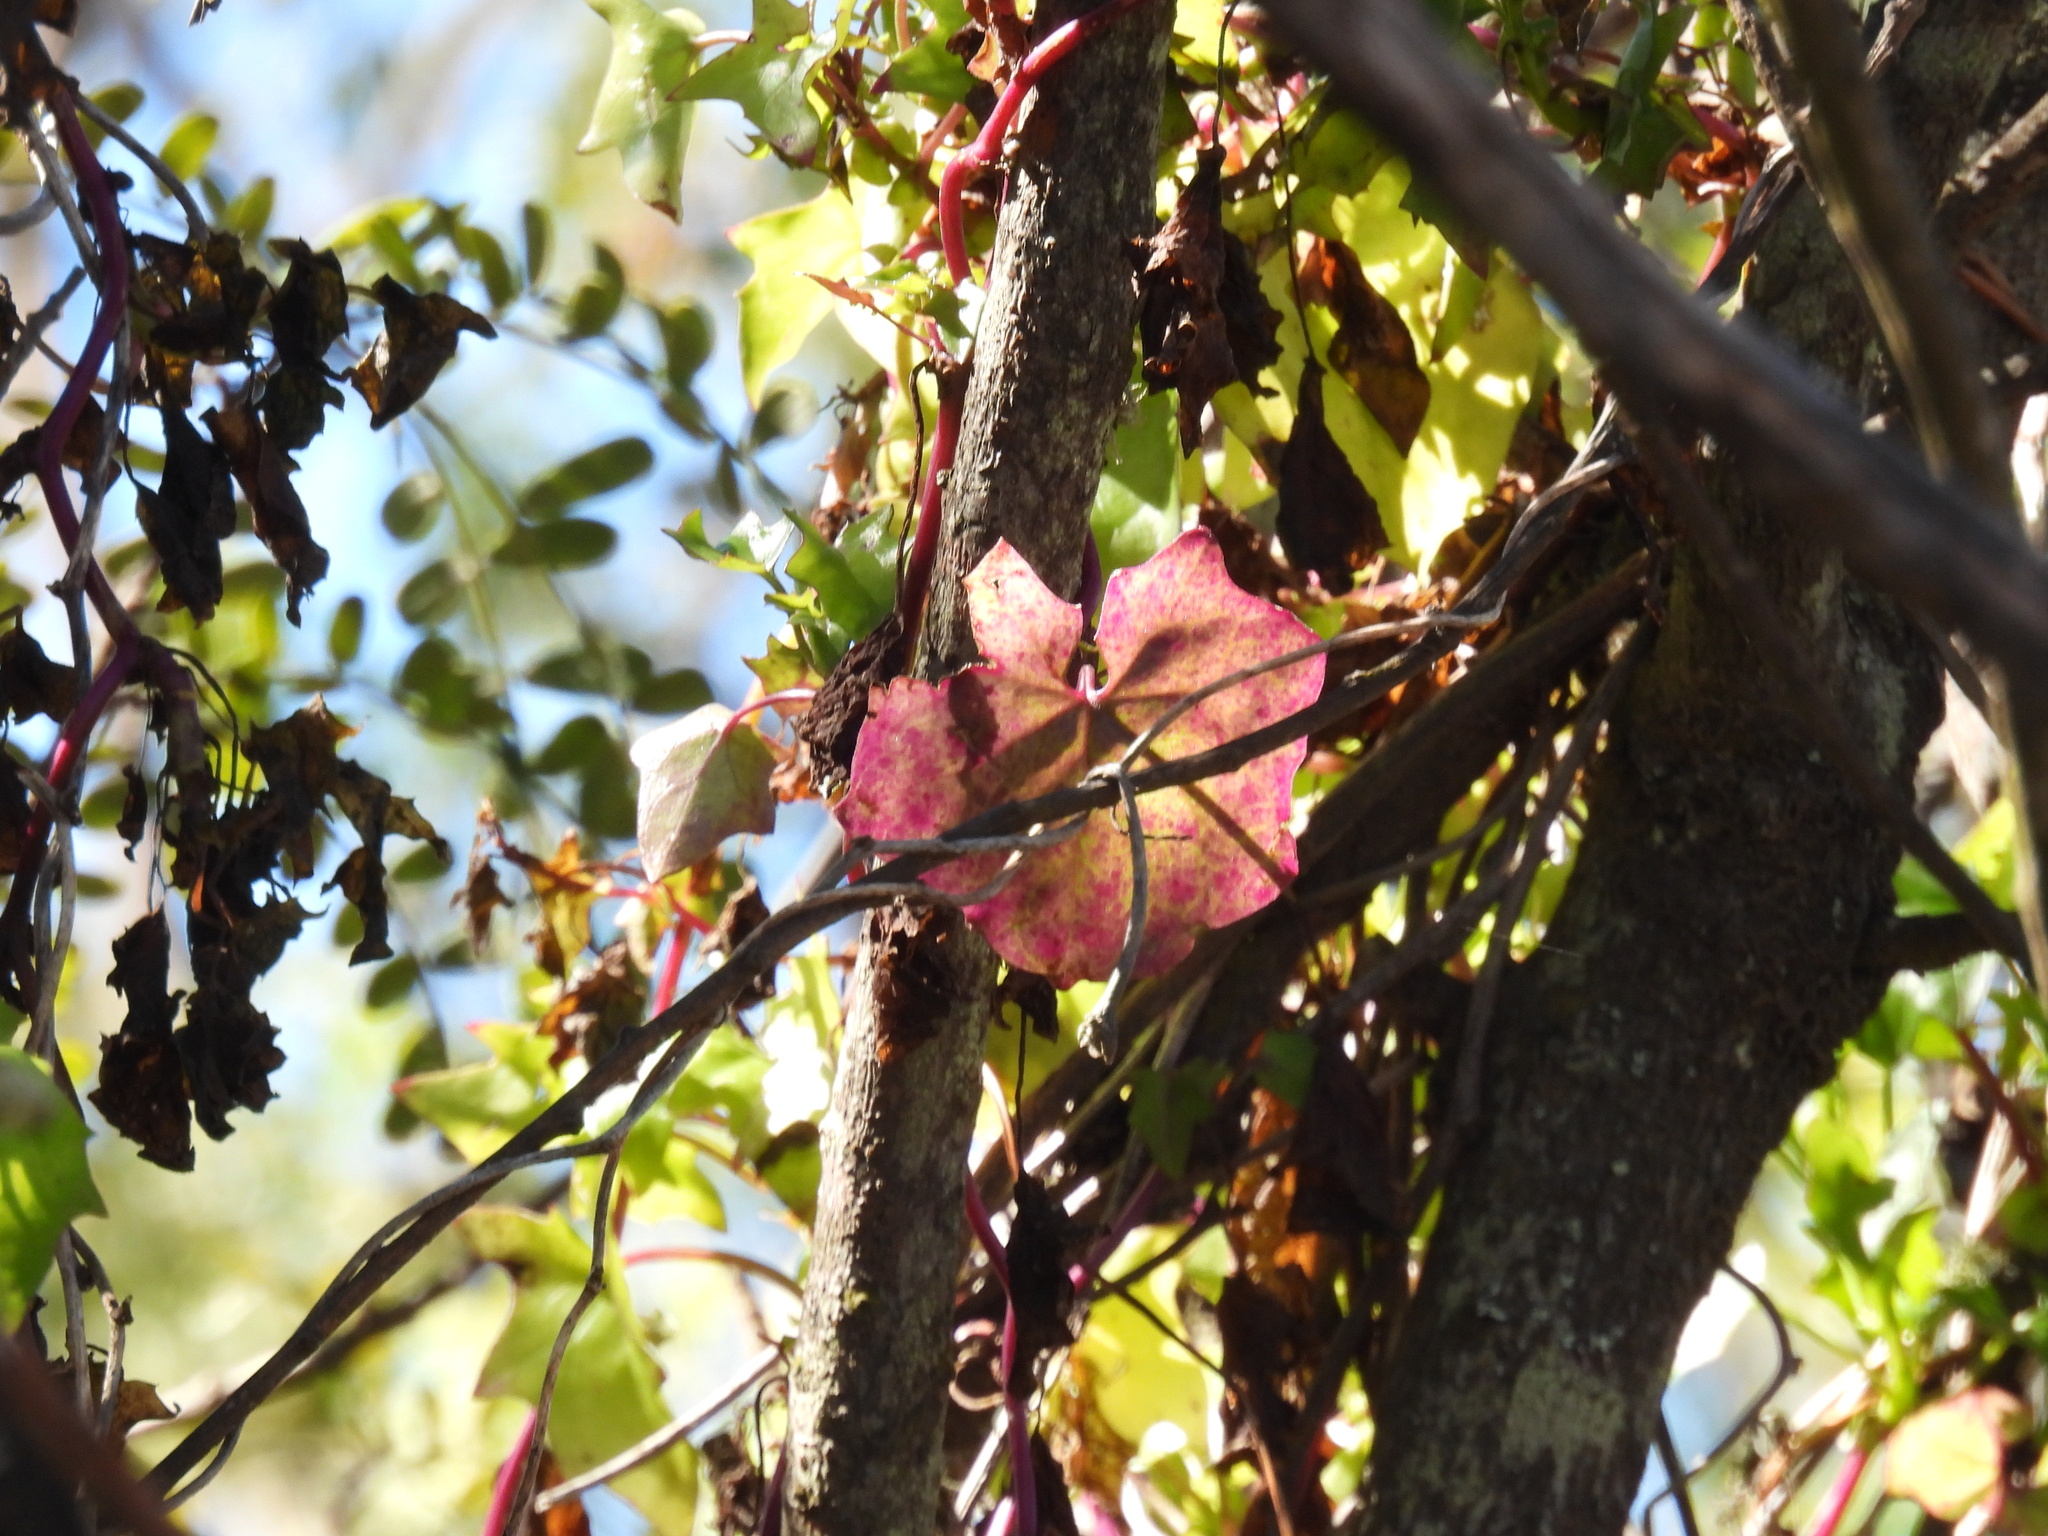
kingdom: Plantae
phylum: Tracheophyta
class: Magnoliopsida
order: Asterales
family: Asteraceae
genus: Delairea
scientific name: Delairea odorata
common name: Cape-ivy
